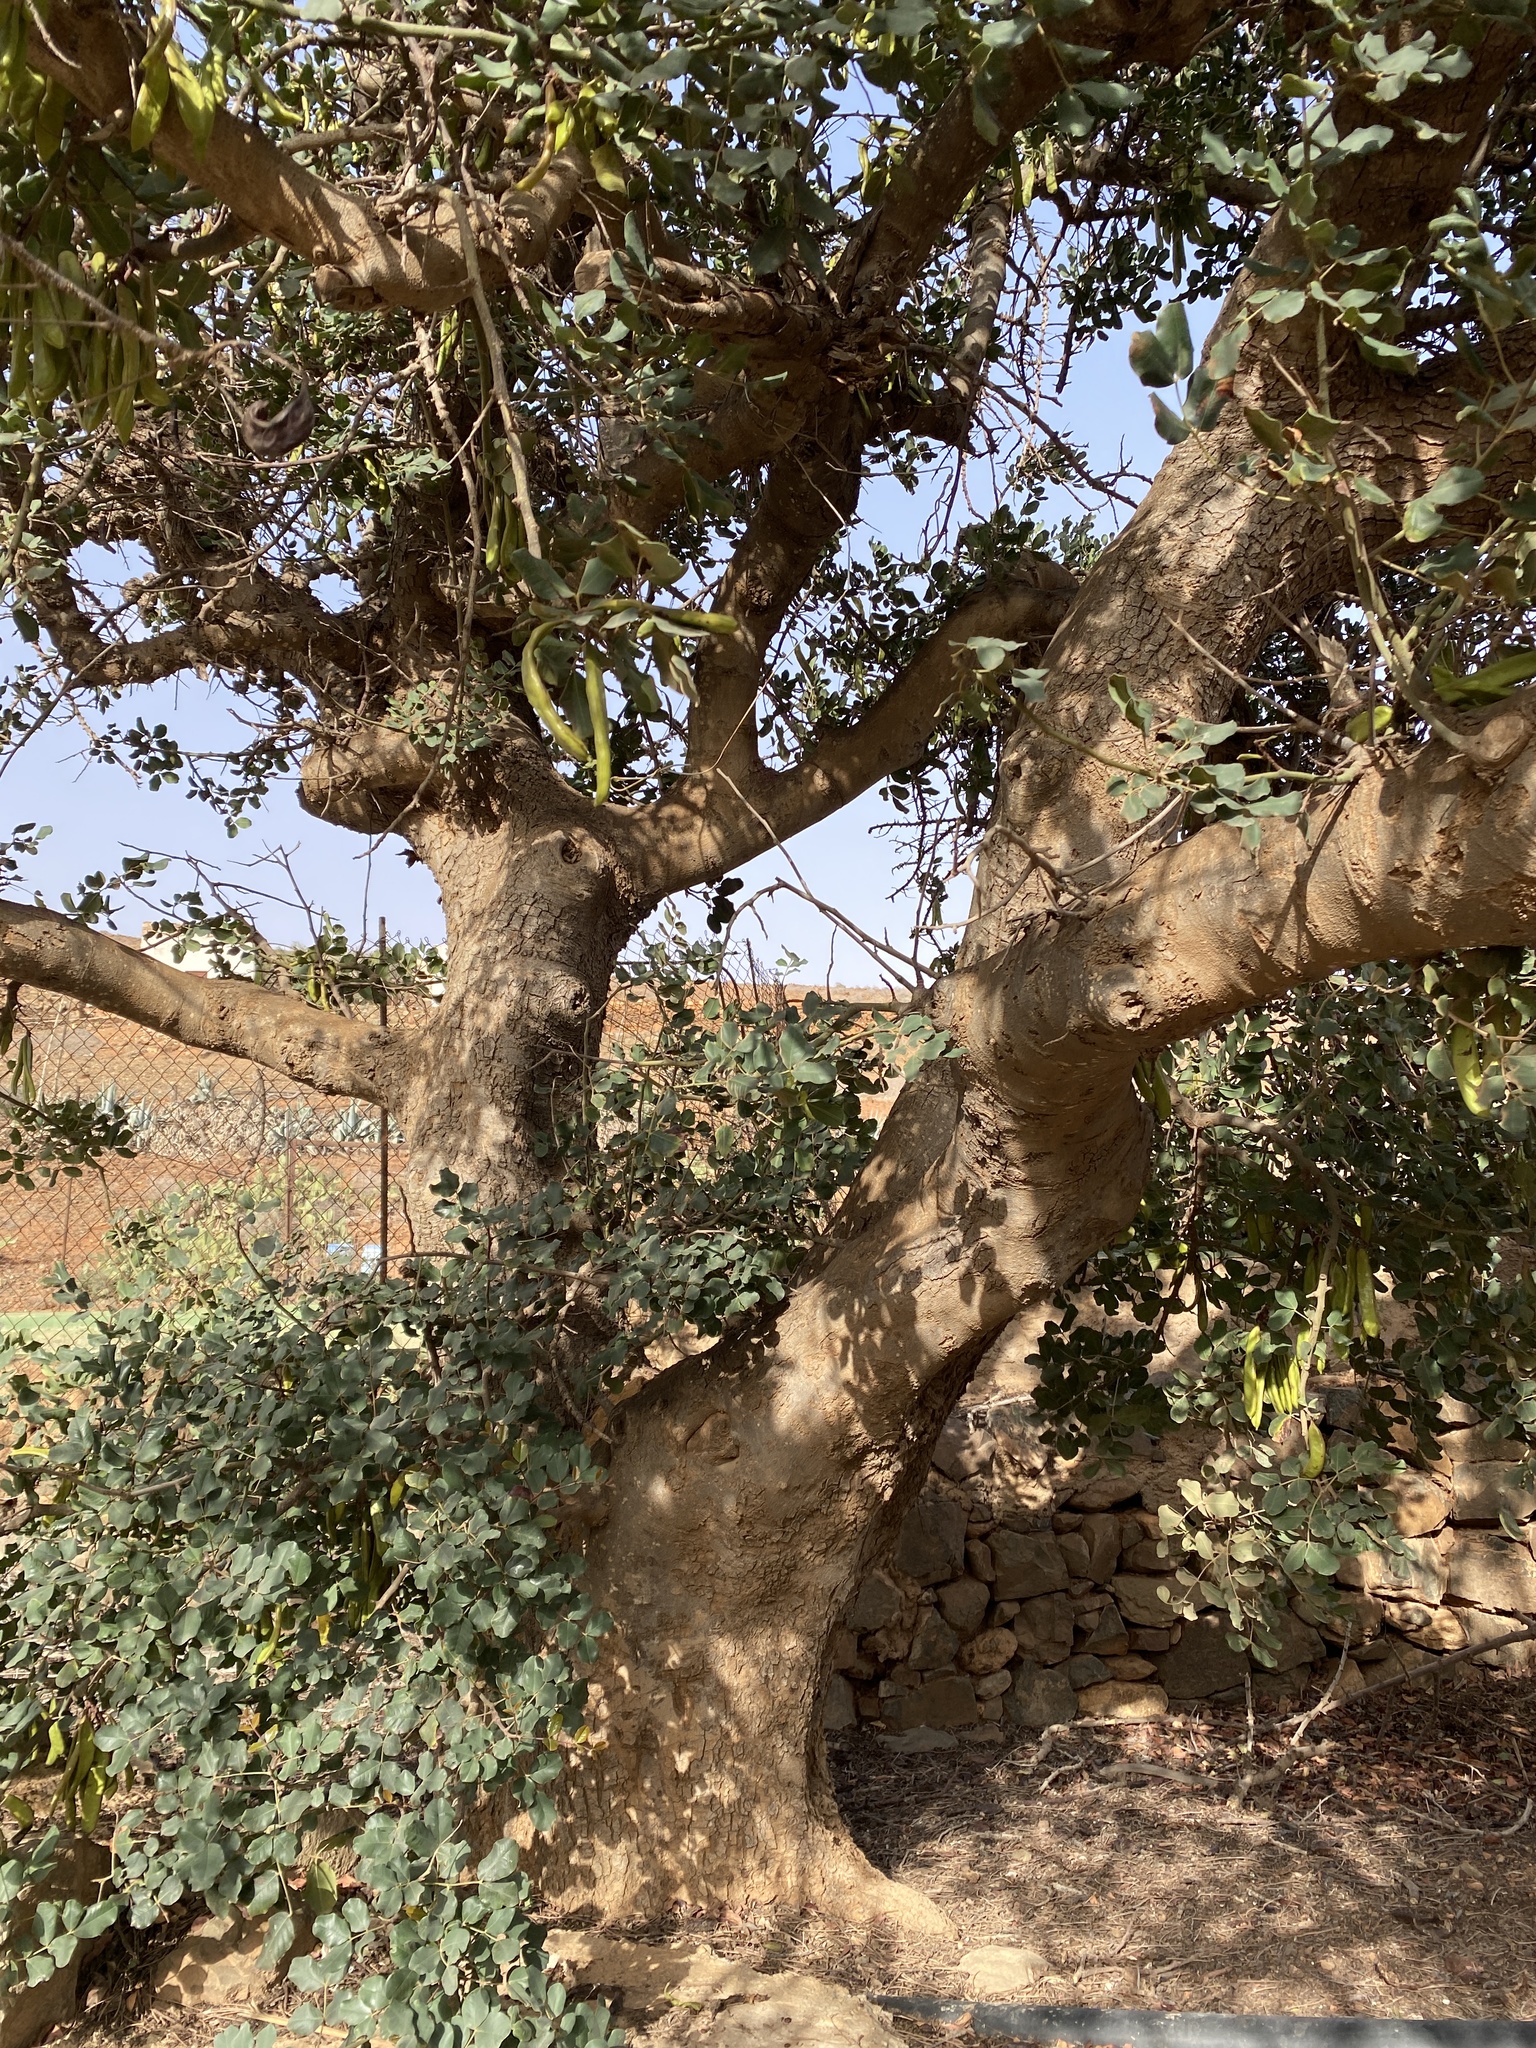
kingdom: Plantae
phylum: Tracheophyta
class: Magnoliopsida
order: Fabales
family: Fabaceae
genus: Ceratonia
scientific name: Ceratonia siliqua
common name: Carob
